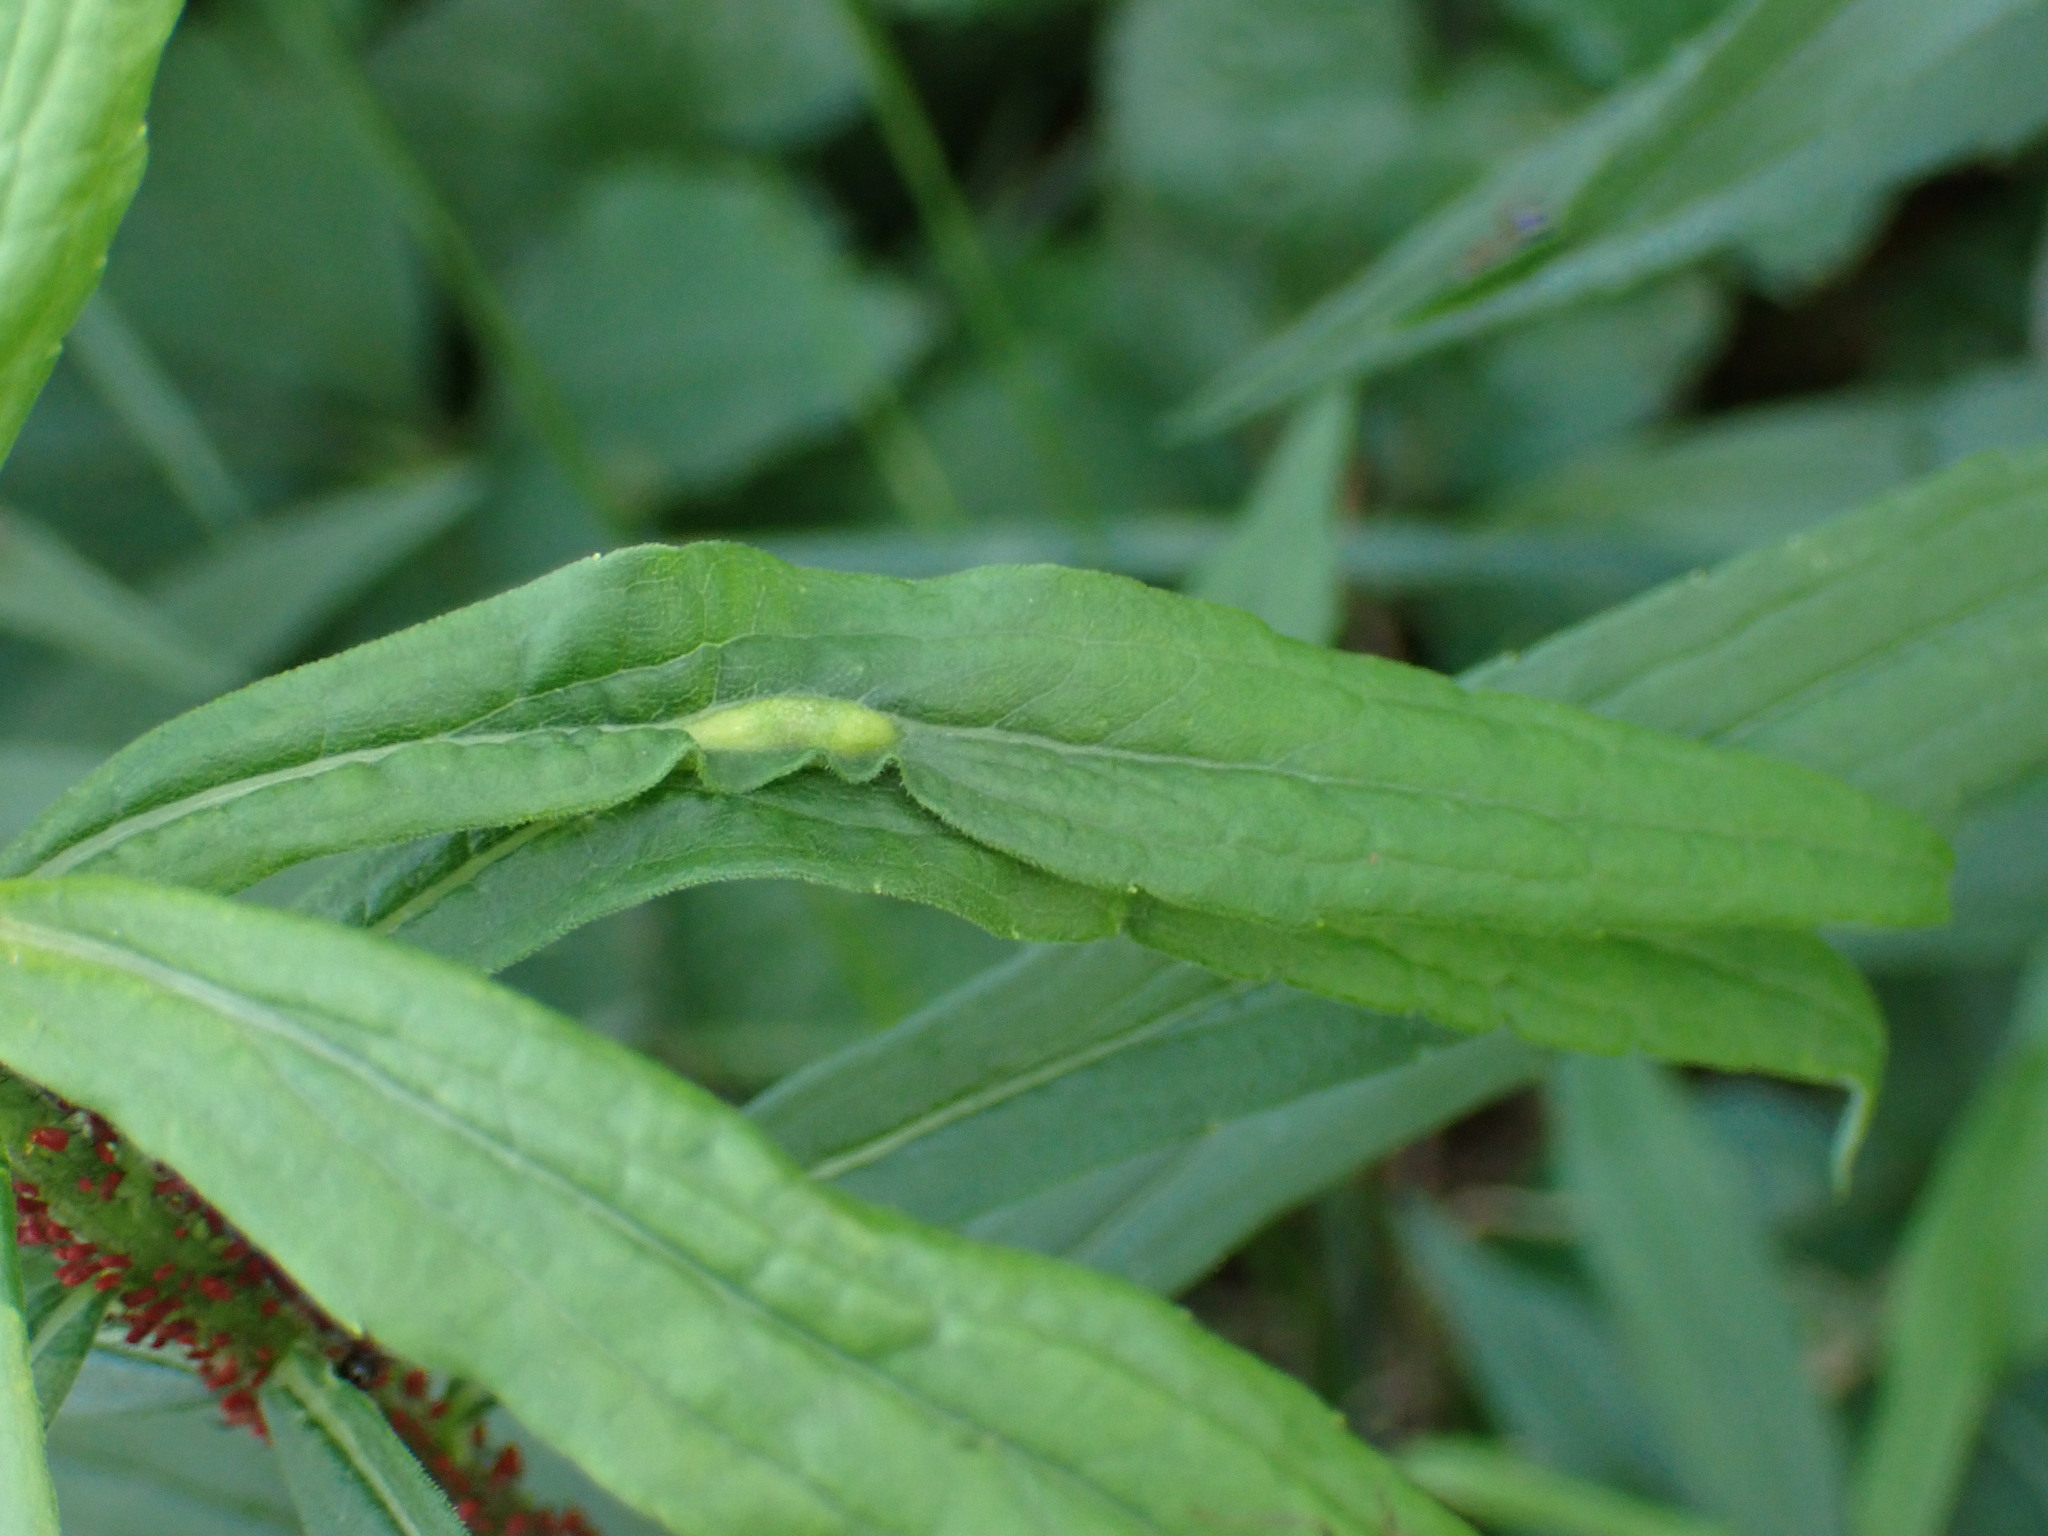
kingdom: Animalia
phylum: Arthropoda
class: Insecta
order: Diptera
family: Cecidomyiidae
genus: Asphondylia
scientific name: Asphondylia solidaginis
